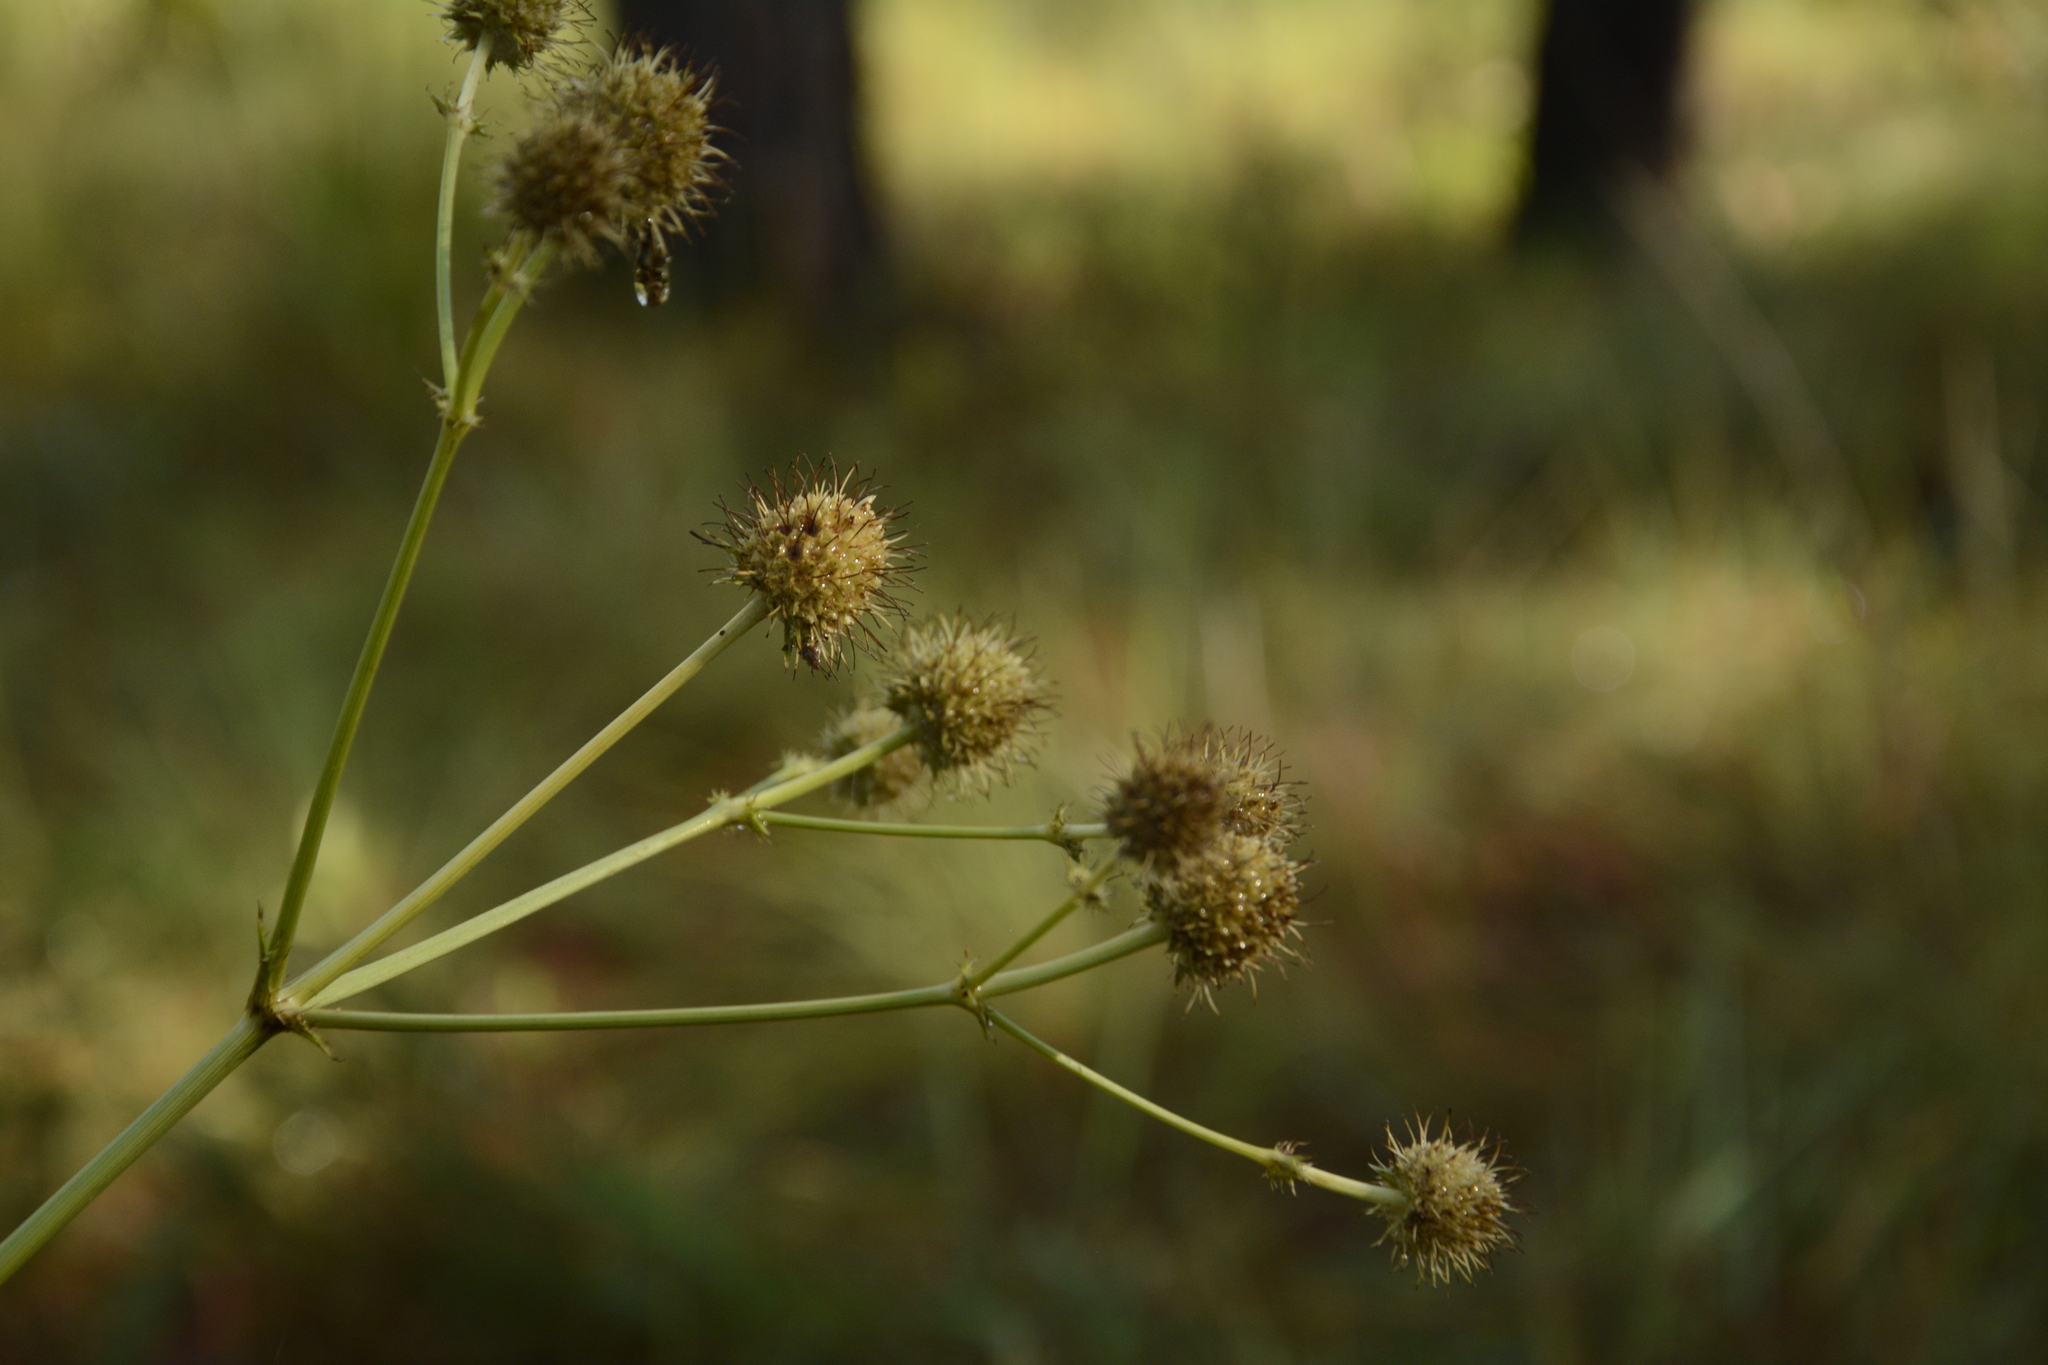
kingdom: Plantae
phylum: Tracheophyta
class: Magnoliopsida
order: Apiales
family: Apiaceae
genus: Eryngium
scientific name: Eryngium yuccifolium
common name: Button eryngo
